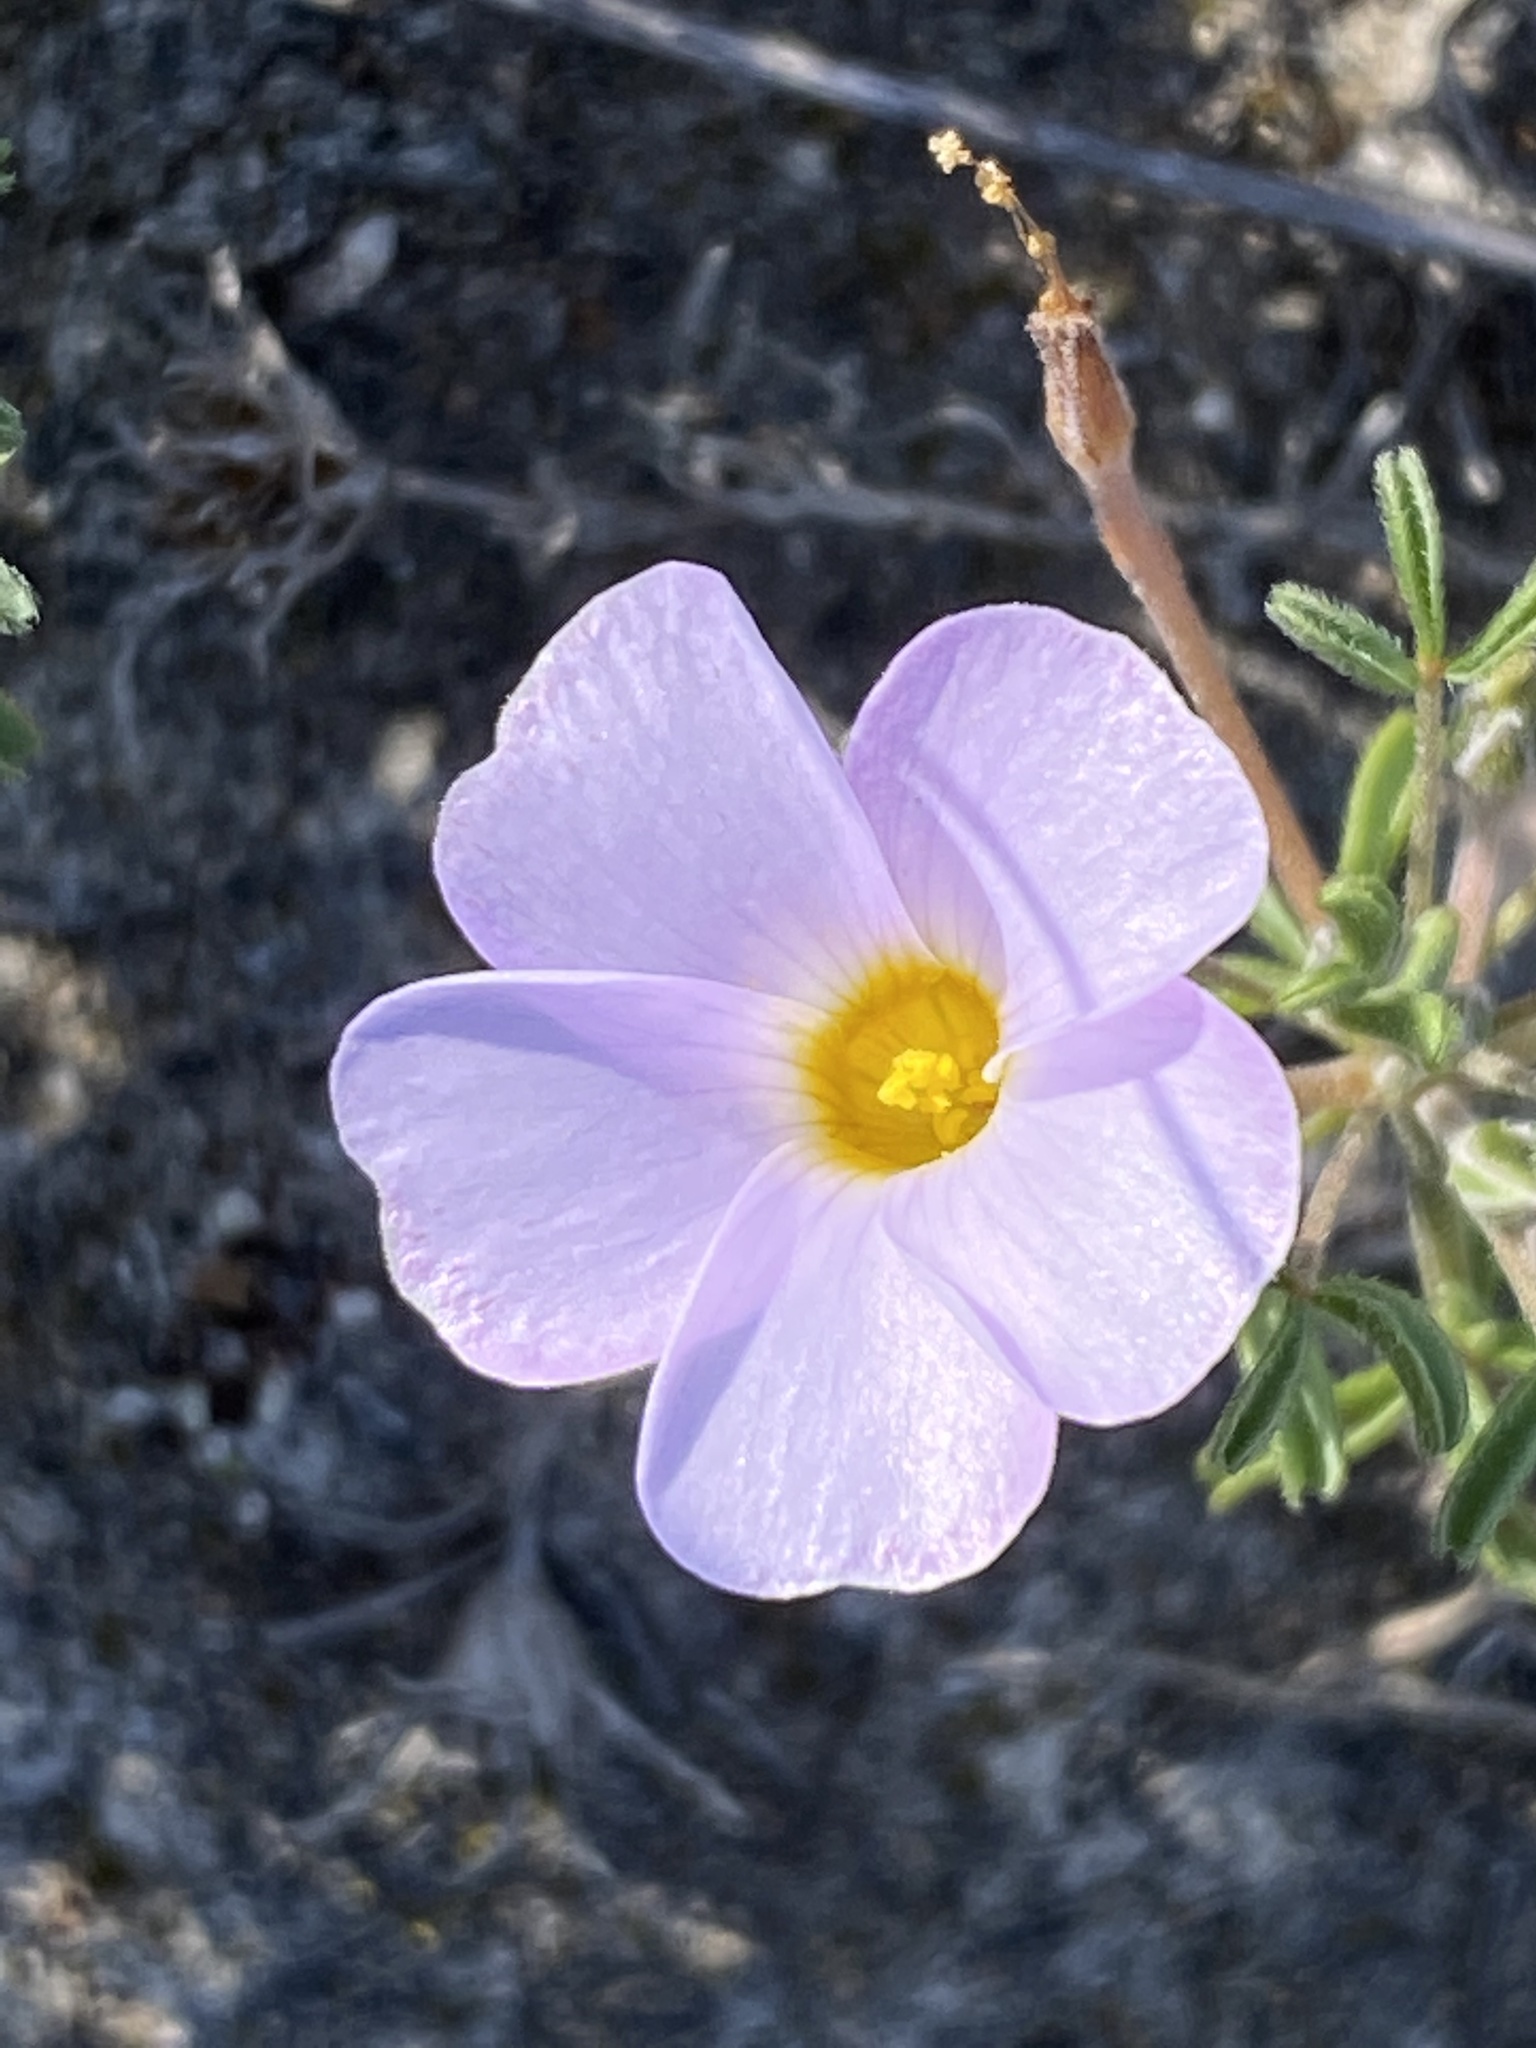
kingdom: Plantae
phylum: Tracheophyta
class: Magnoliopsida
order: Oxalidales
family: Oxalidaceae
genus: Oxalis
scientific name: Oxalis ciliaris
